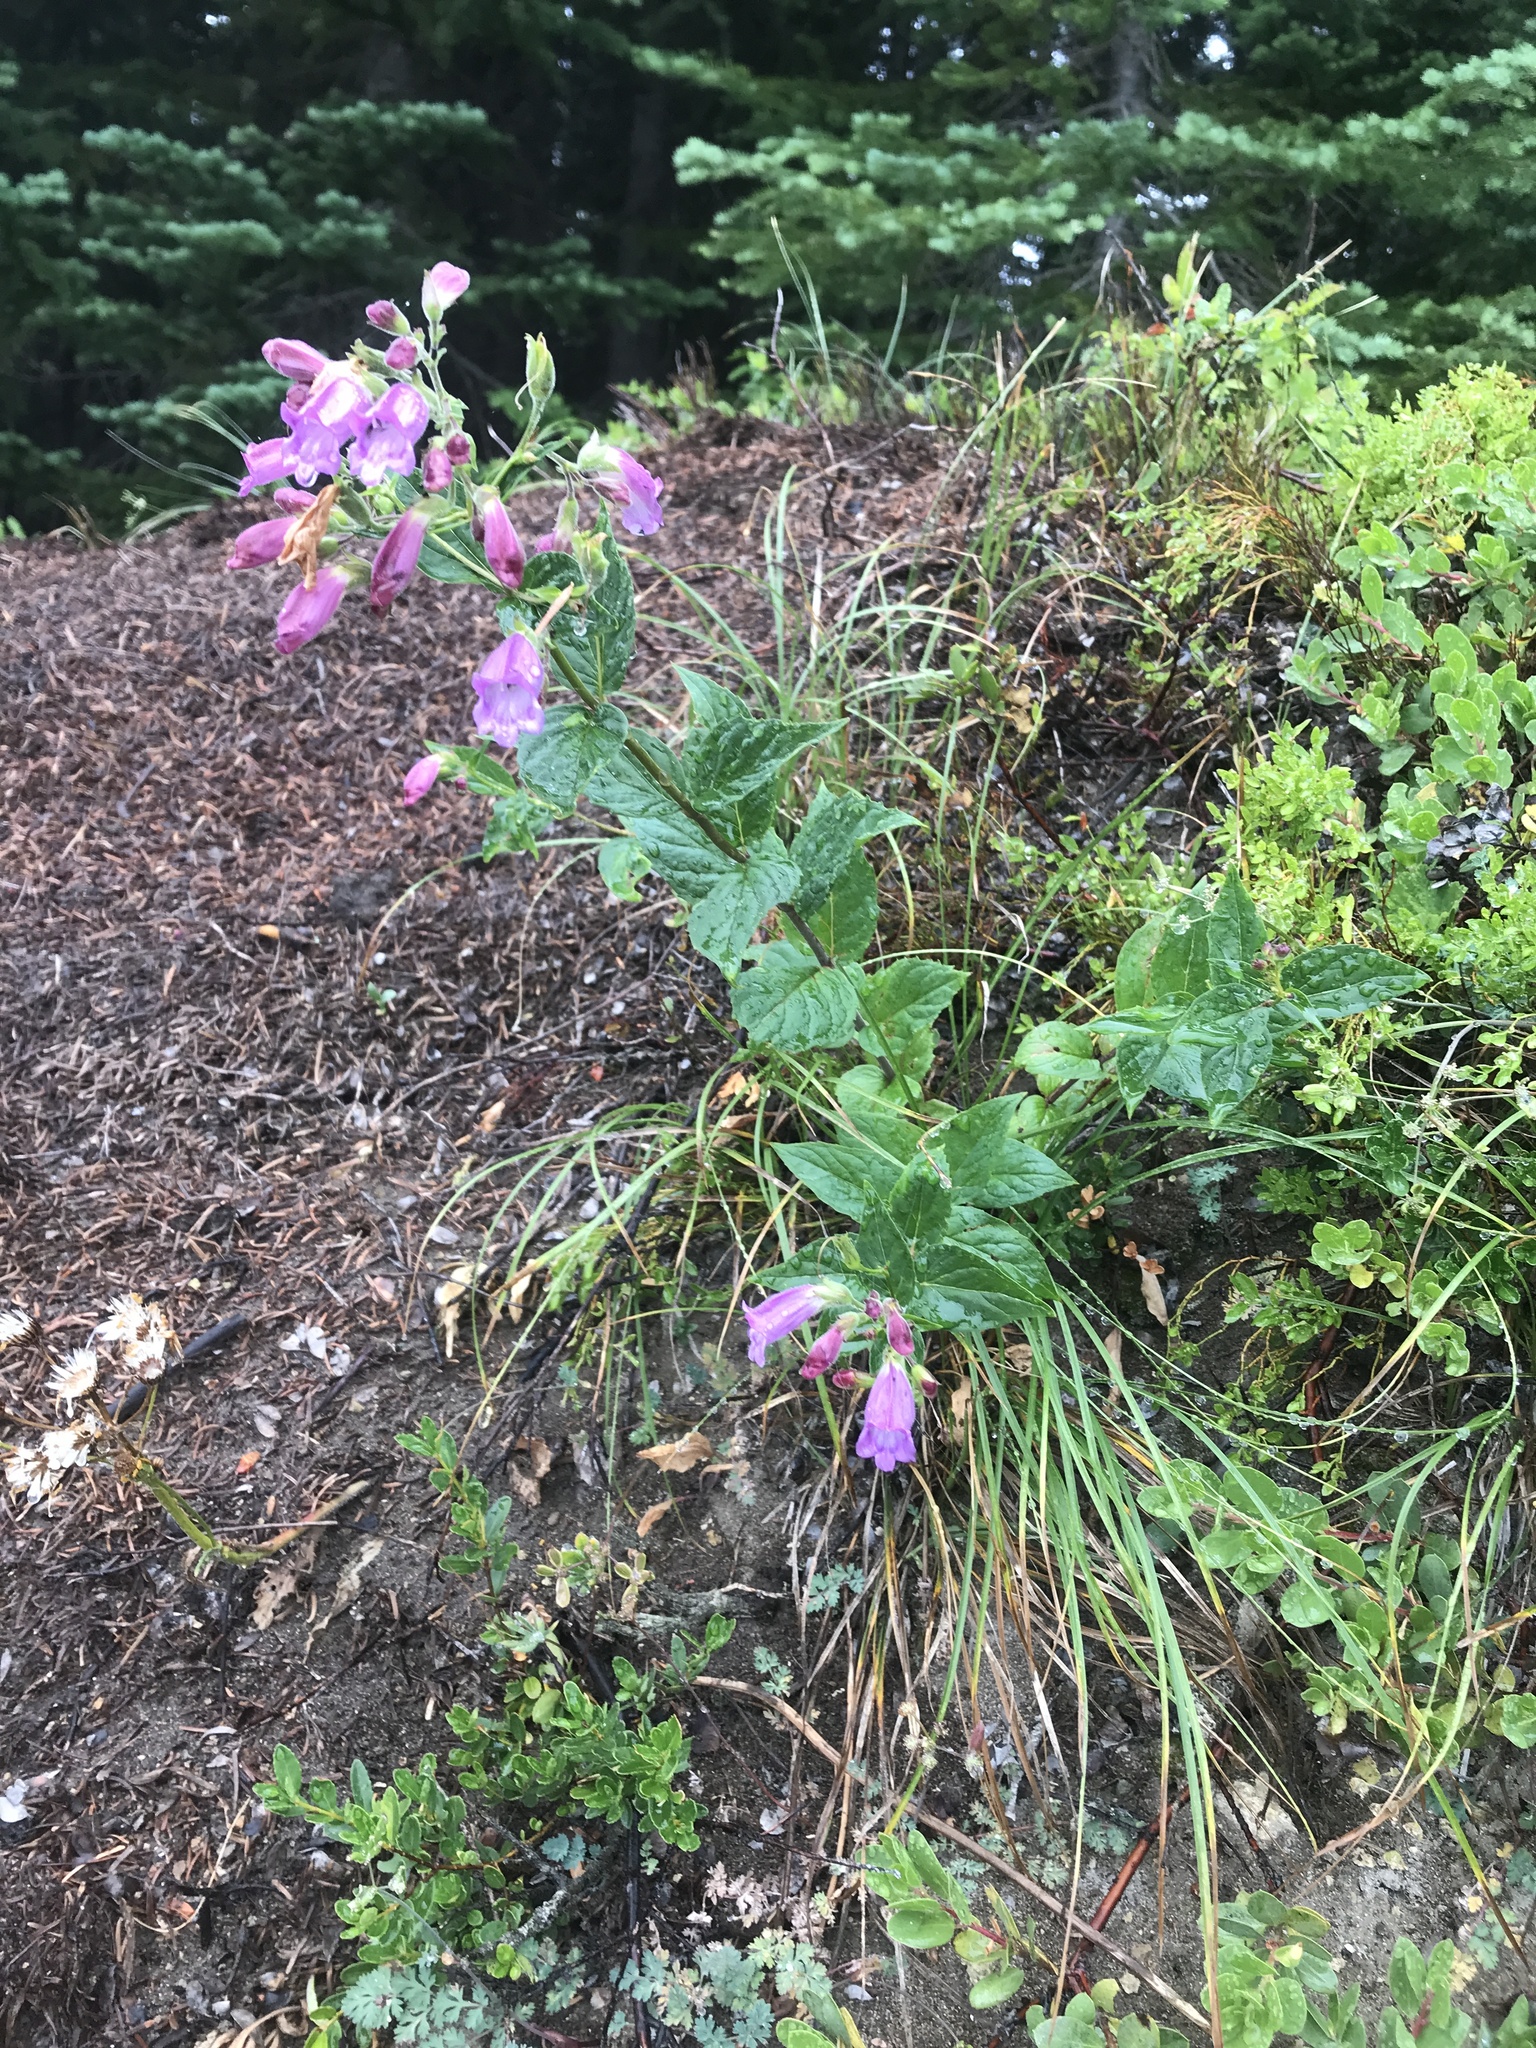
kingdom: Plantae
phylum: Tracheophyta
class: Magnoliopsida
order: Lamiales
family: Plantaginaceae
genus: Nothochelone
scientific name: Nothochelone nemorosa
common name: Woodland beardtongue
